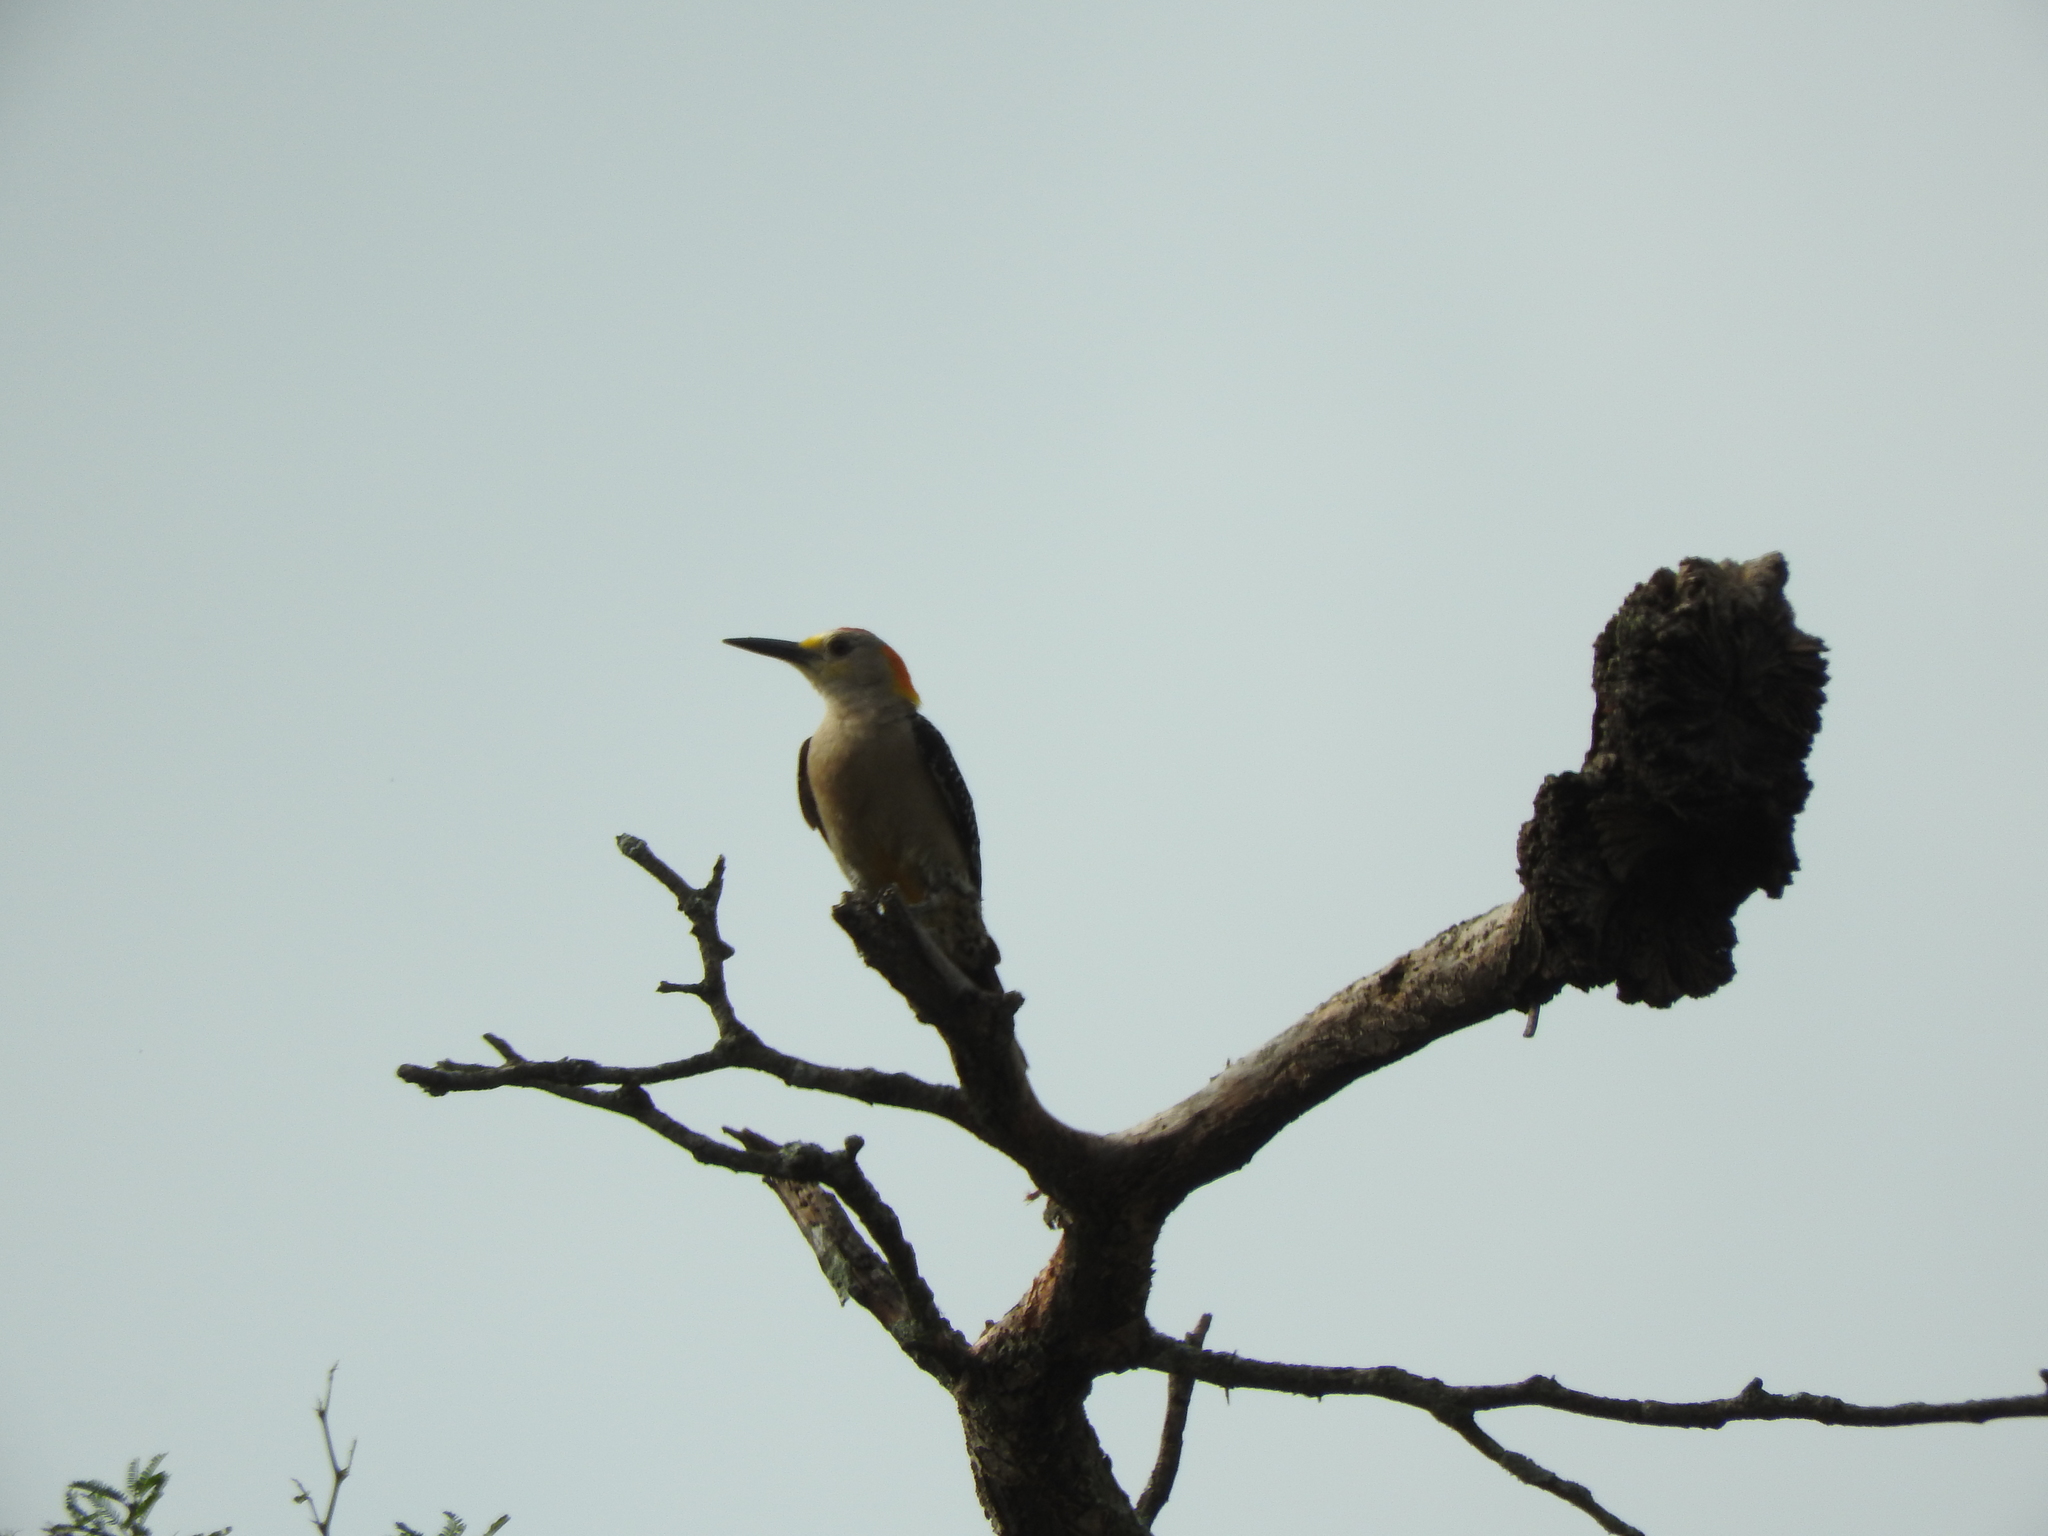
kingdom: Animalia
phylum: Chordata
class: Aves
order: Piciformes
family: Picidae
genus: Melanerpes
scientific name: Melanerpes aurifrons
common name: Golden-fronted woodpecker
